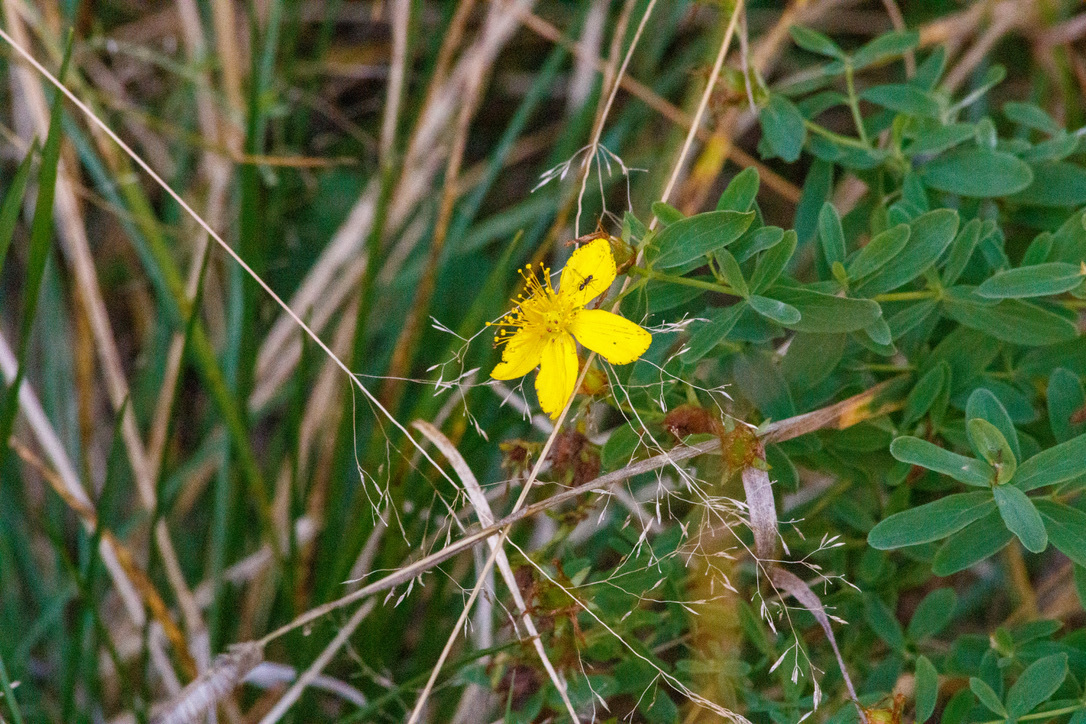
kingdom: Plantae
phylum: Tracheophyta
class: Magnoliopsida
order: Malpighiales
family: Hypericaceae
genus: Hypericum
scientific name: Hypericum perforatum
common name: Common st. johnswort
